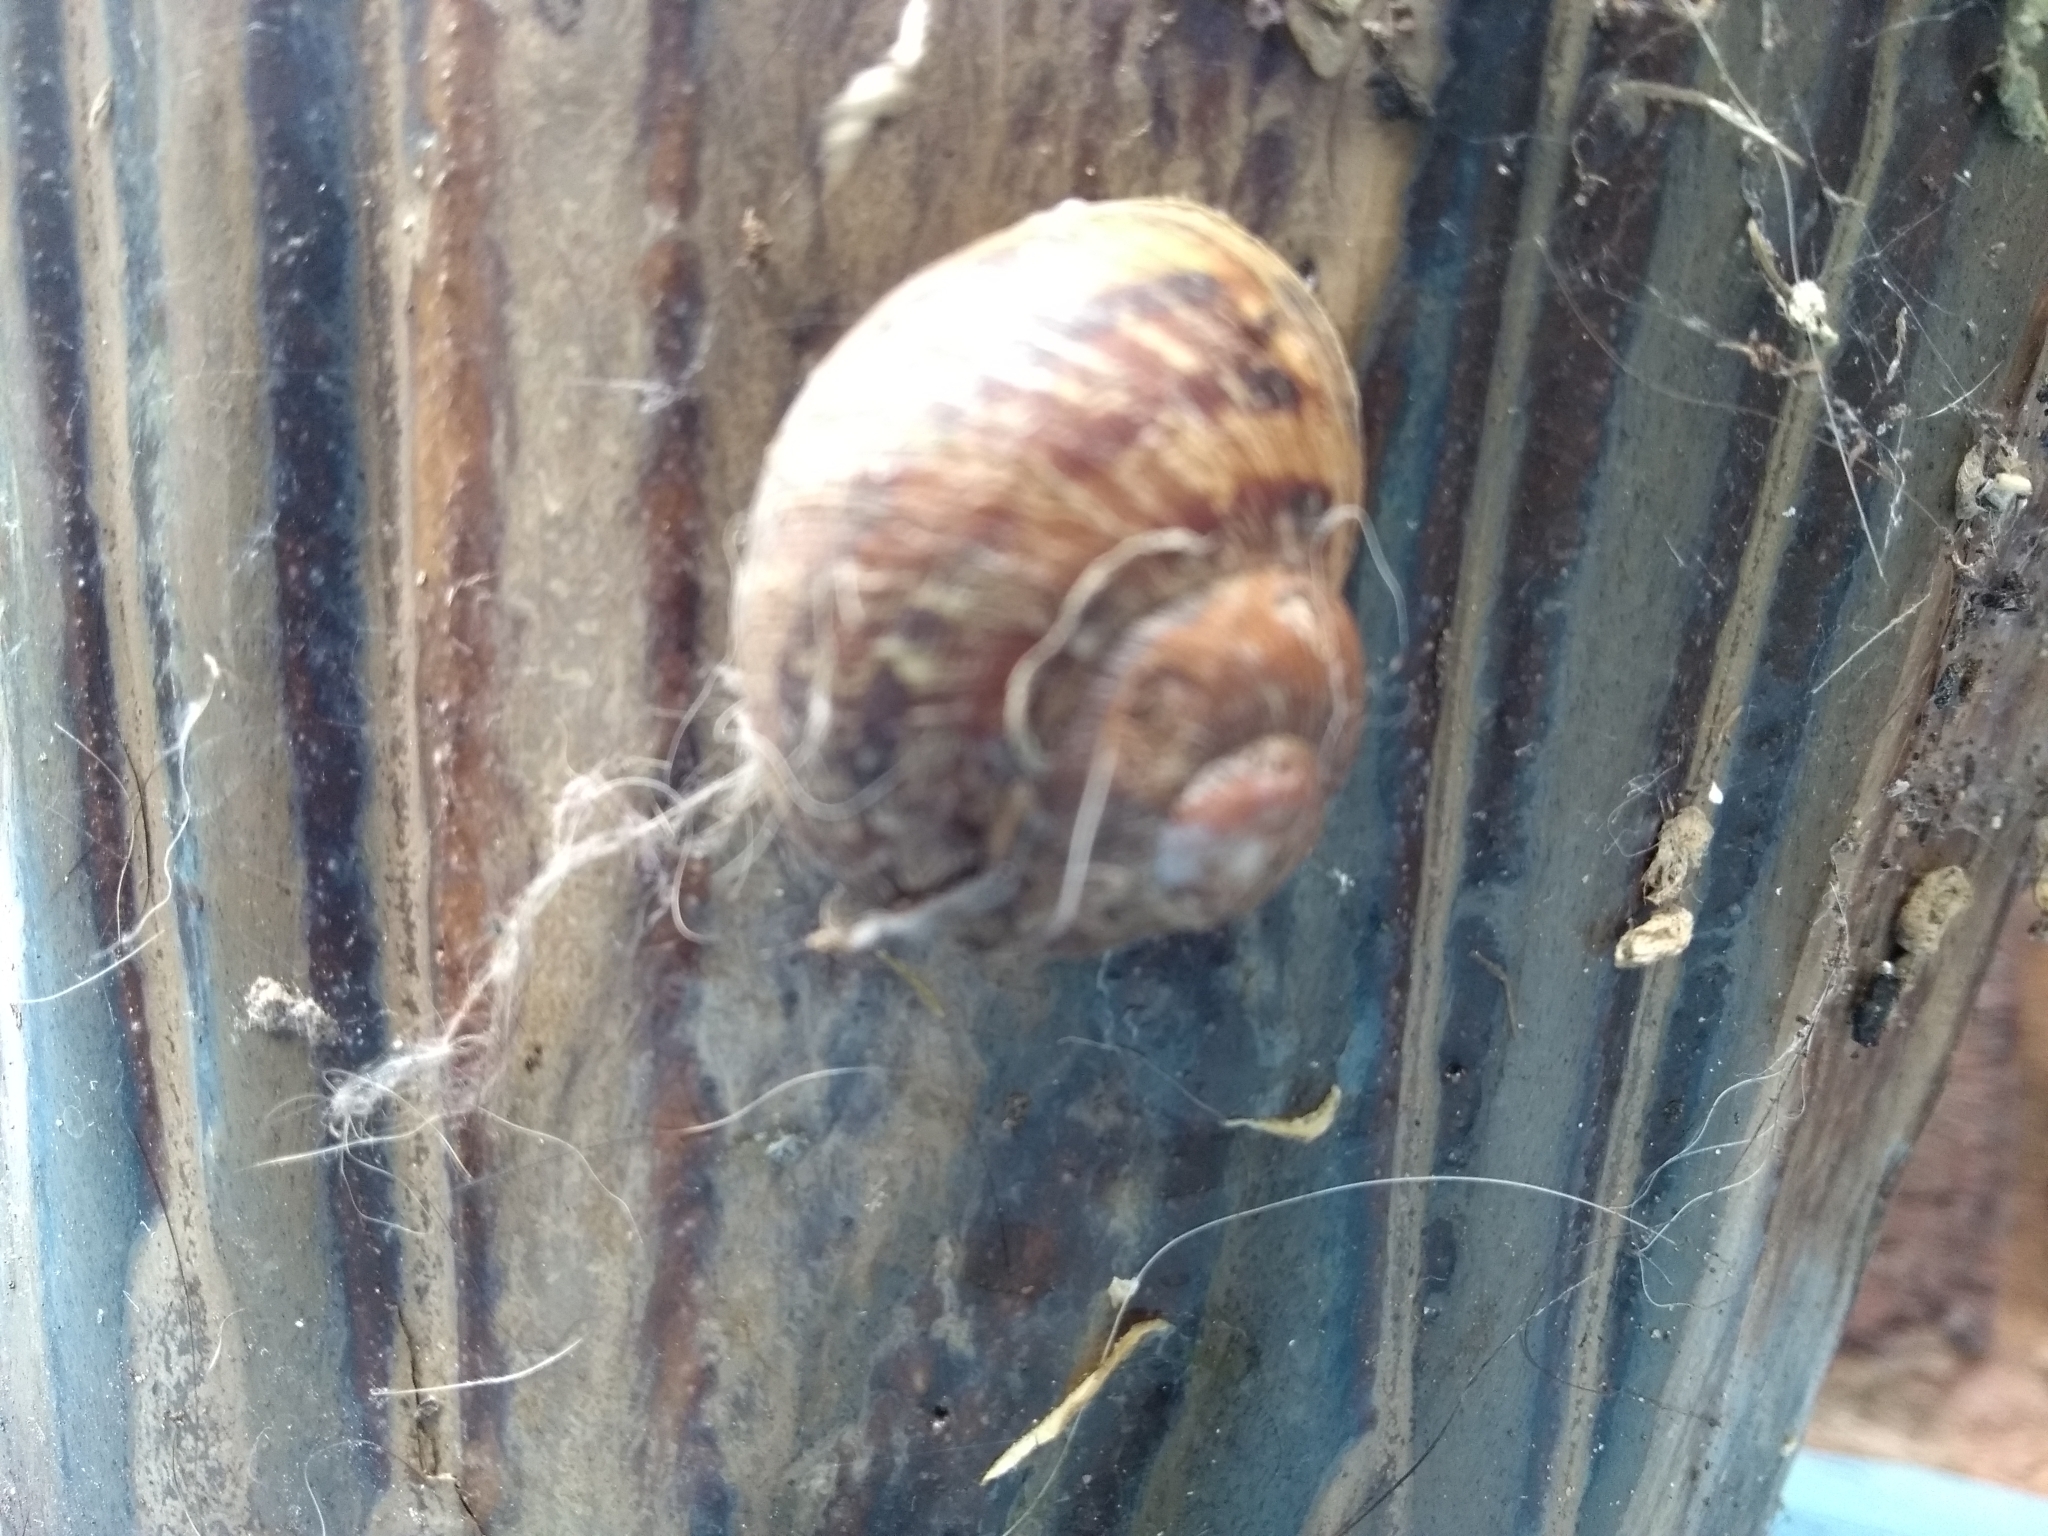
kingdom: Animalia
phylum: Mollusca
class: Gastropoda
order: Stylommatophora
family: Helicidae
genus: Cornu
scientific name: Cornu aspersum
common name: Brown garden snail
